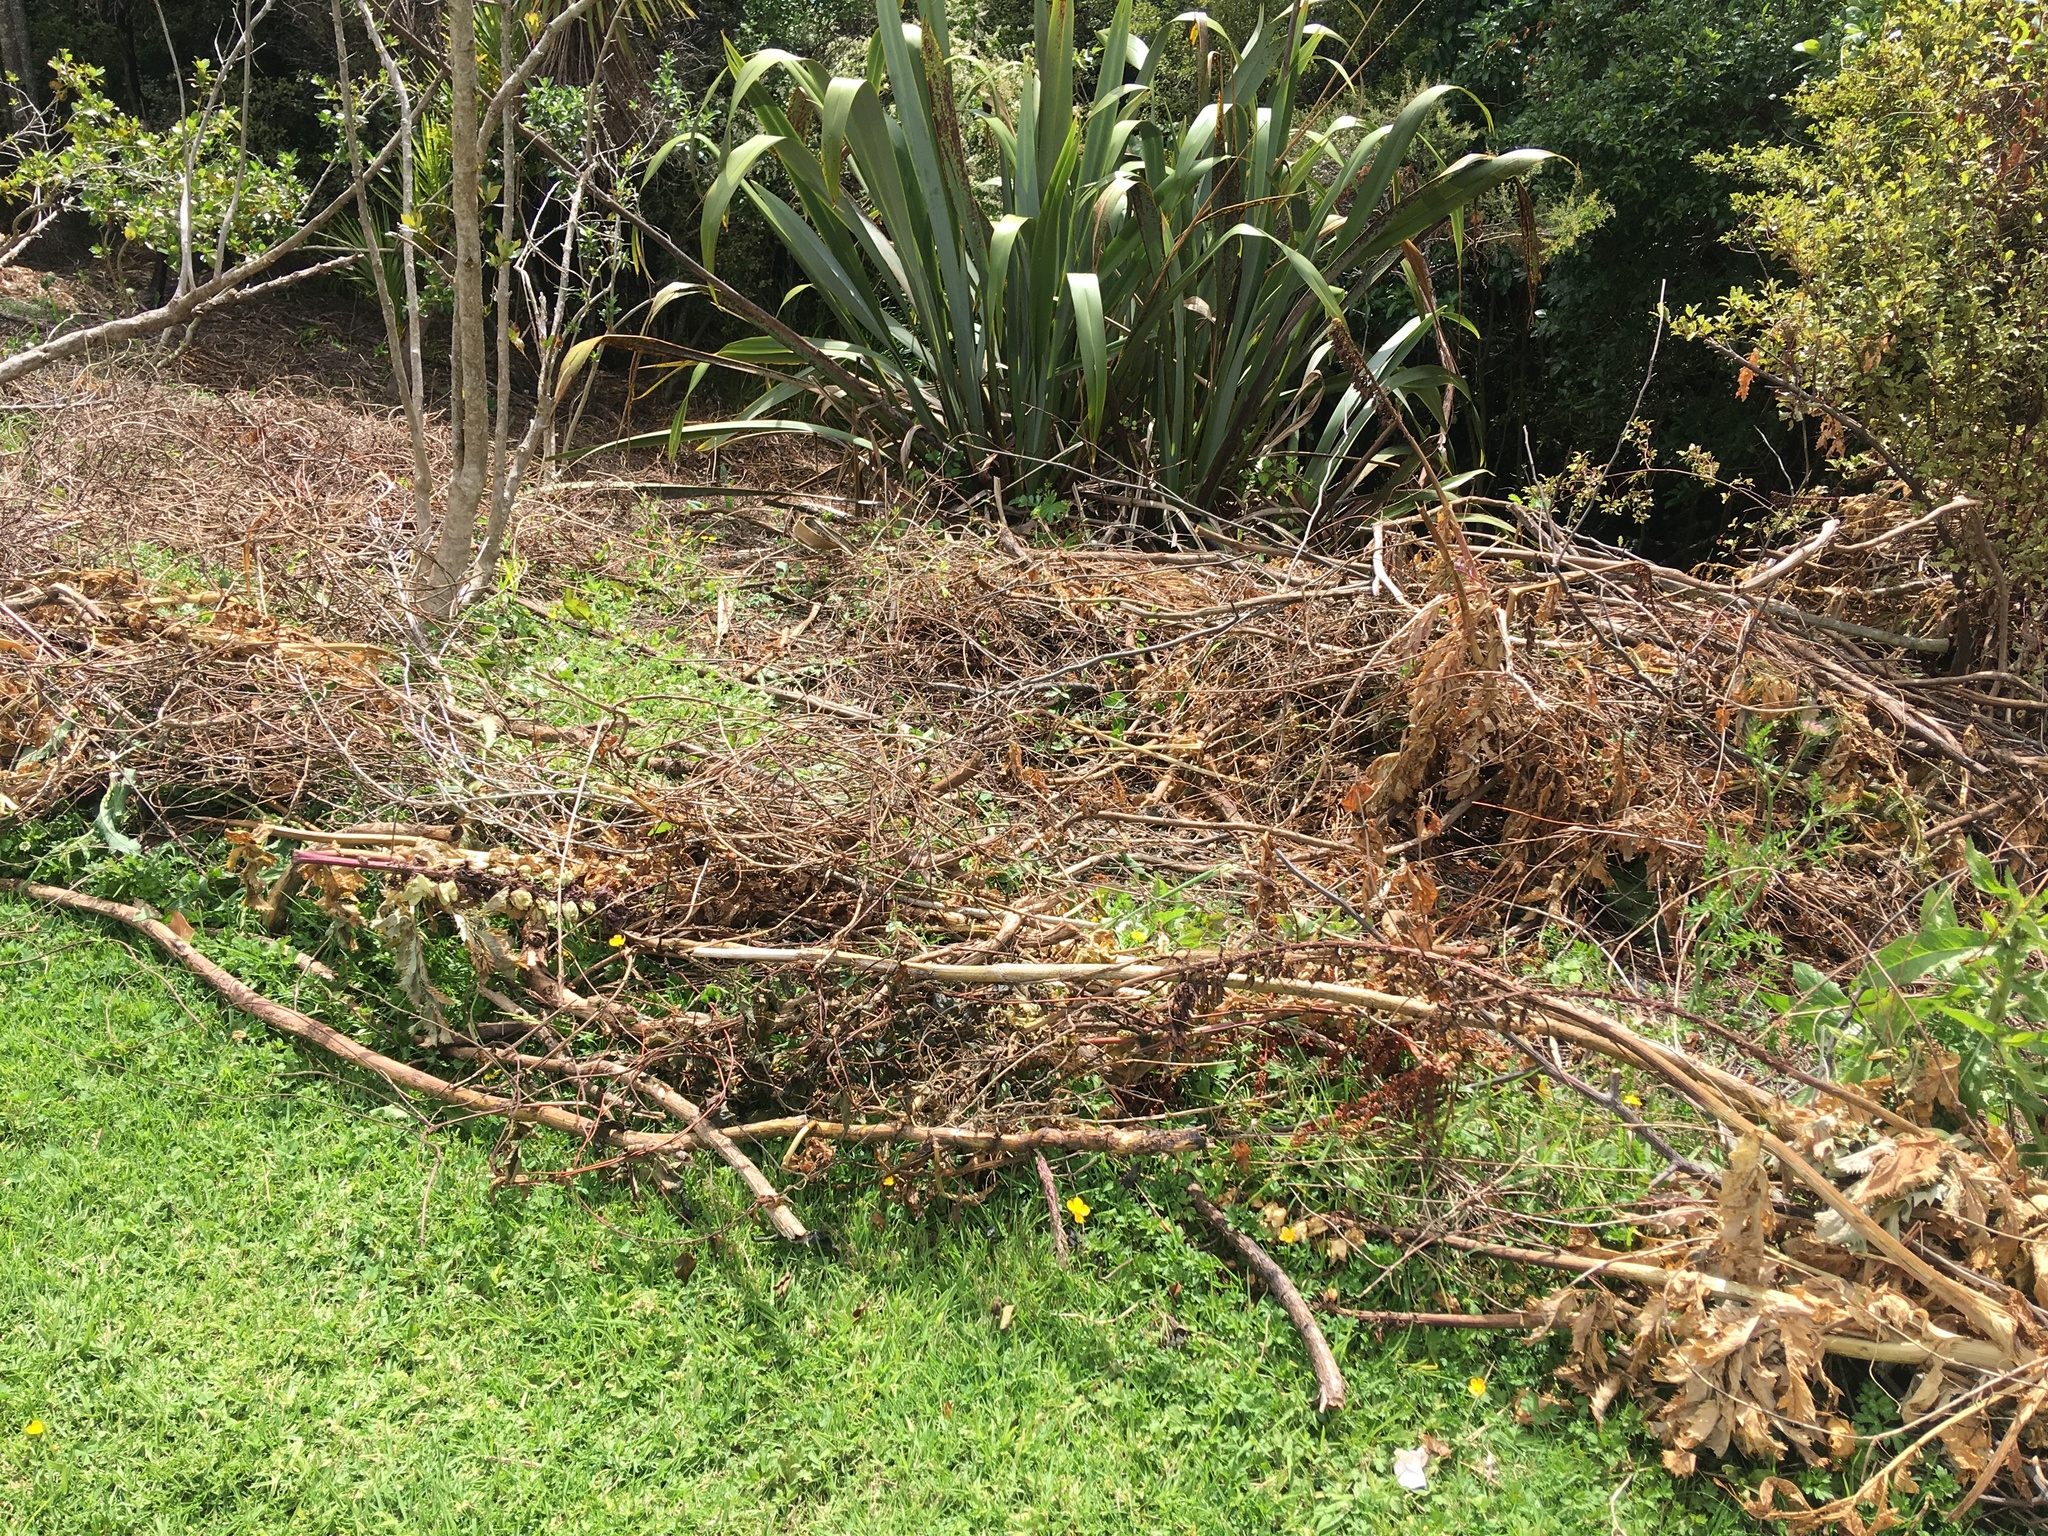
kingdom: Plantae
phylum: Tracheophyta
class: Magnoliopsida
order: Geraniales
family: Melianthaceae
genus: Melianthus
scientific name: Melianthus major
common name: Honey-flower
